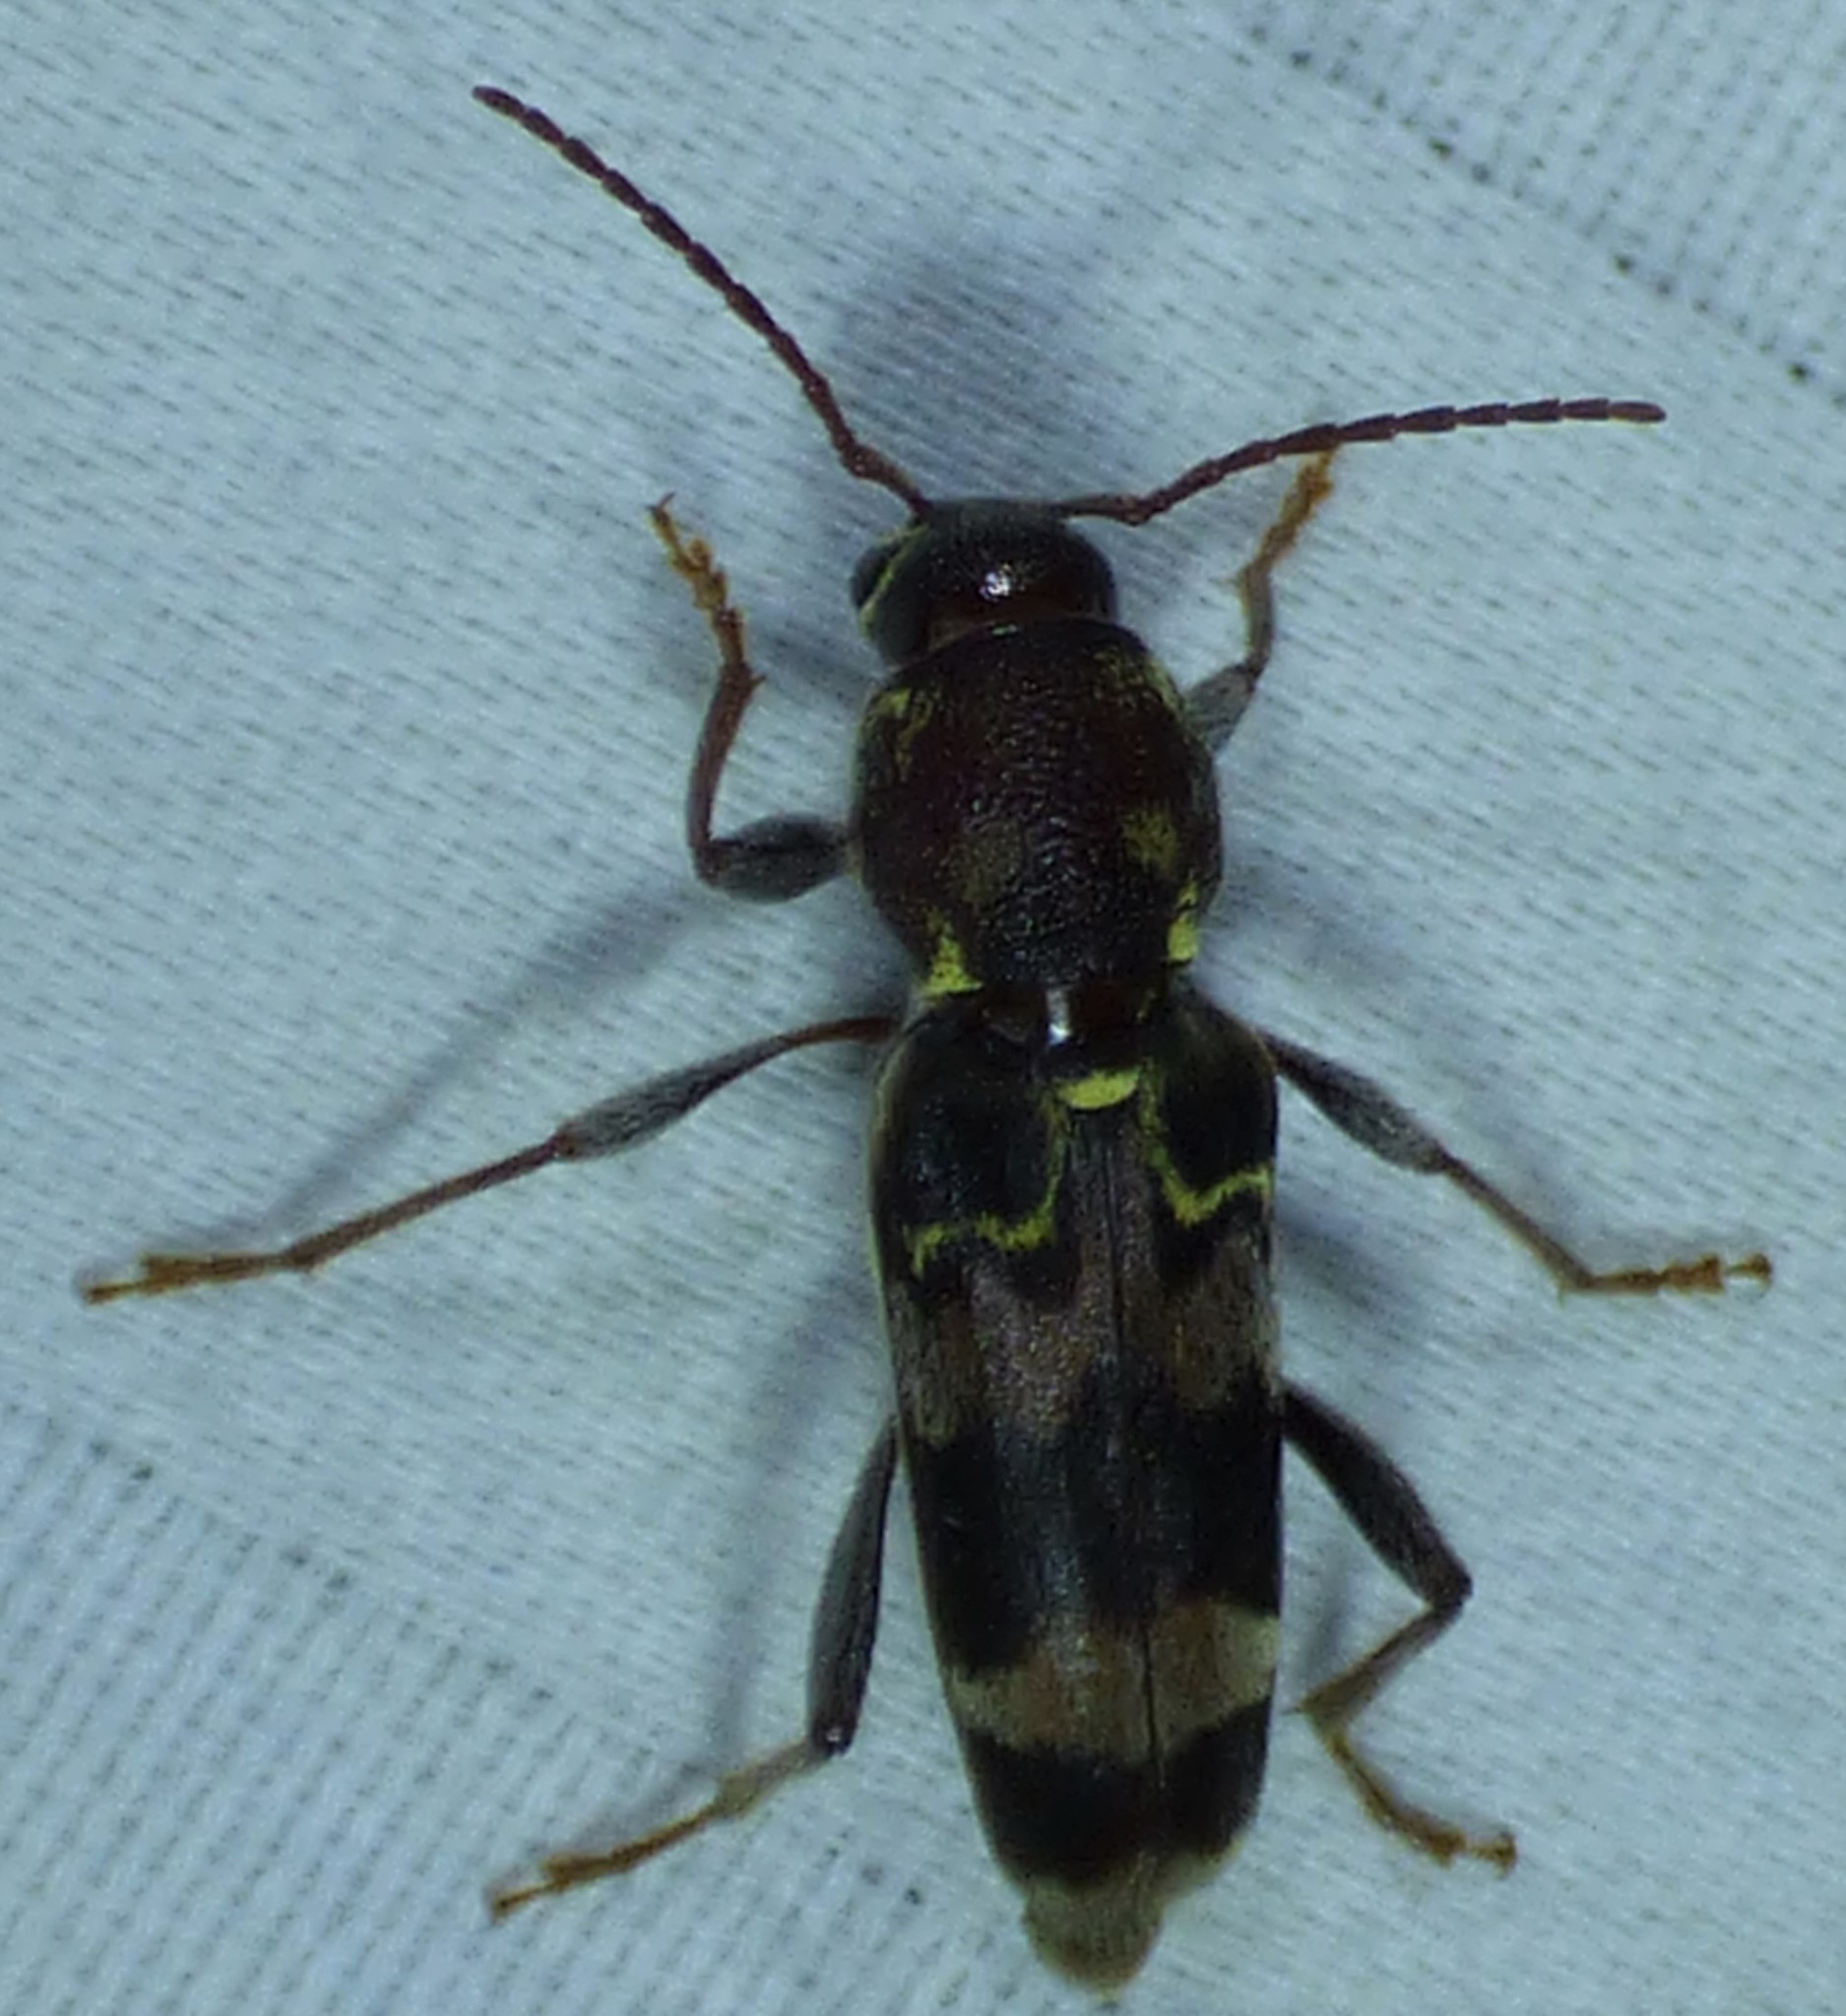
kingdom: Animalia
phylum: Arthropoda
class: Insecta
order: Coleoptera
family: Cerambycidae
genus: Xylotrechus
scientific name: Xylotrechus colonus
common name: Long-horned beetle
